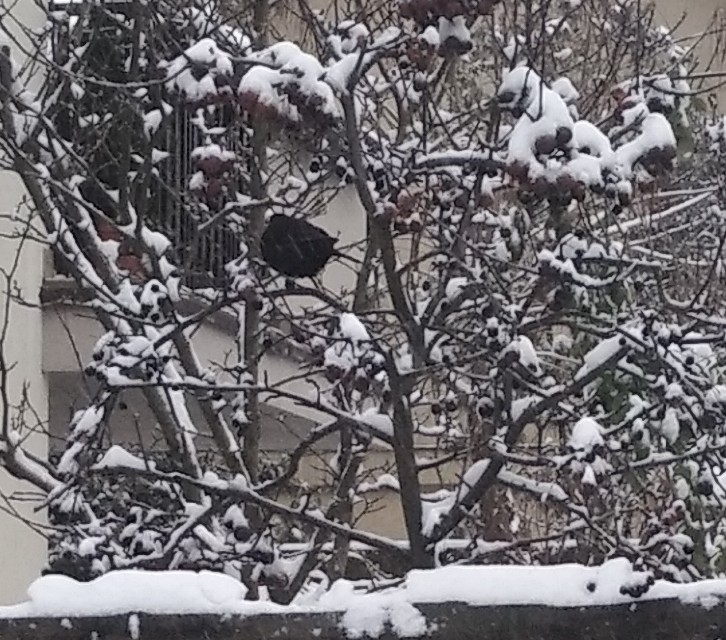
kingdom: Animalia
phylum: Chordata
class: Aves
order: Passeriformes
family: Turdidae
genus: Turdus
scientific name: Turdus merula
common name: Common blackbird
